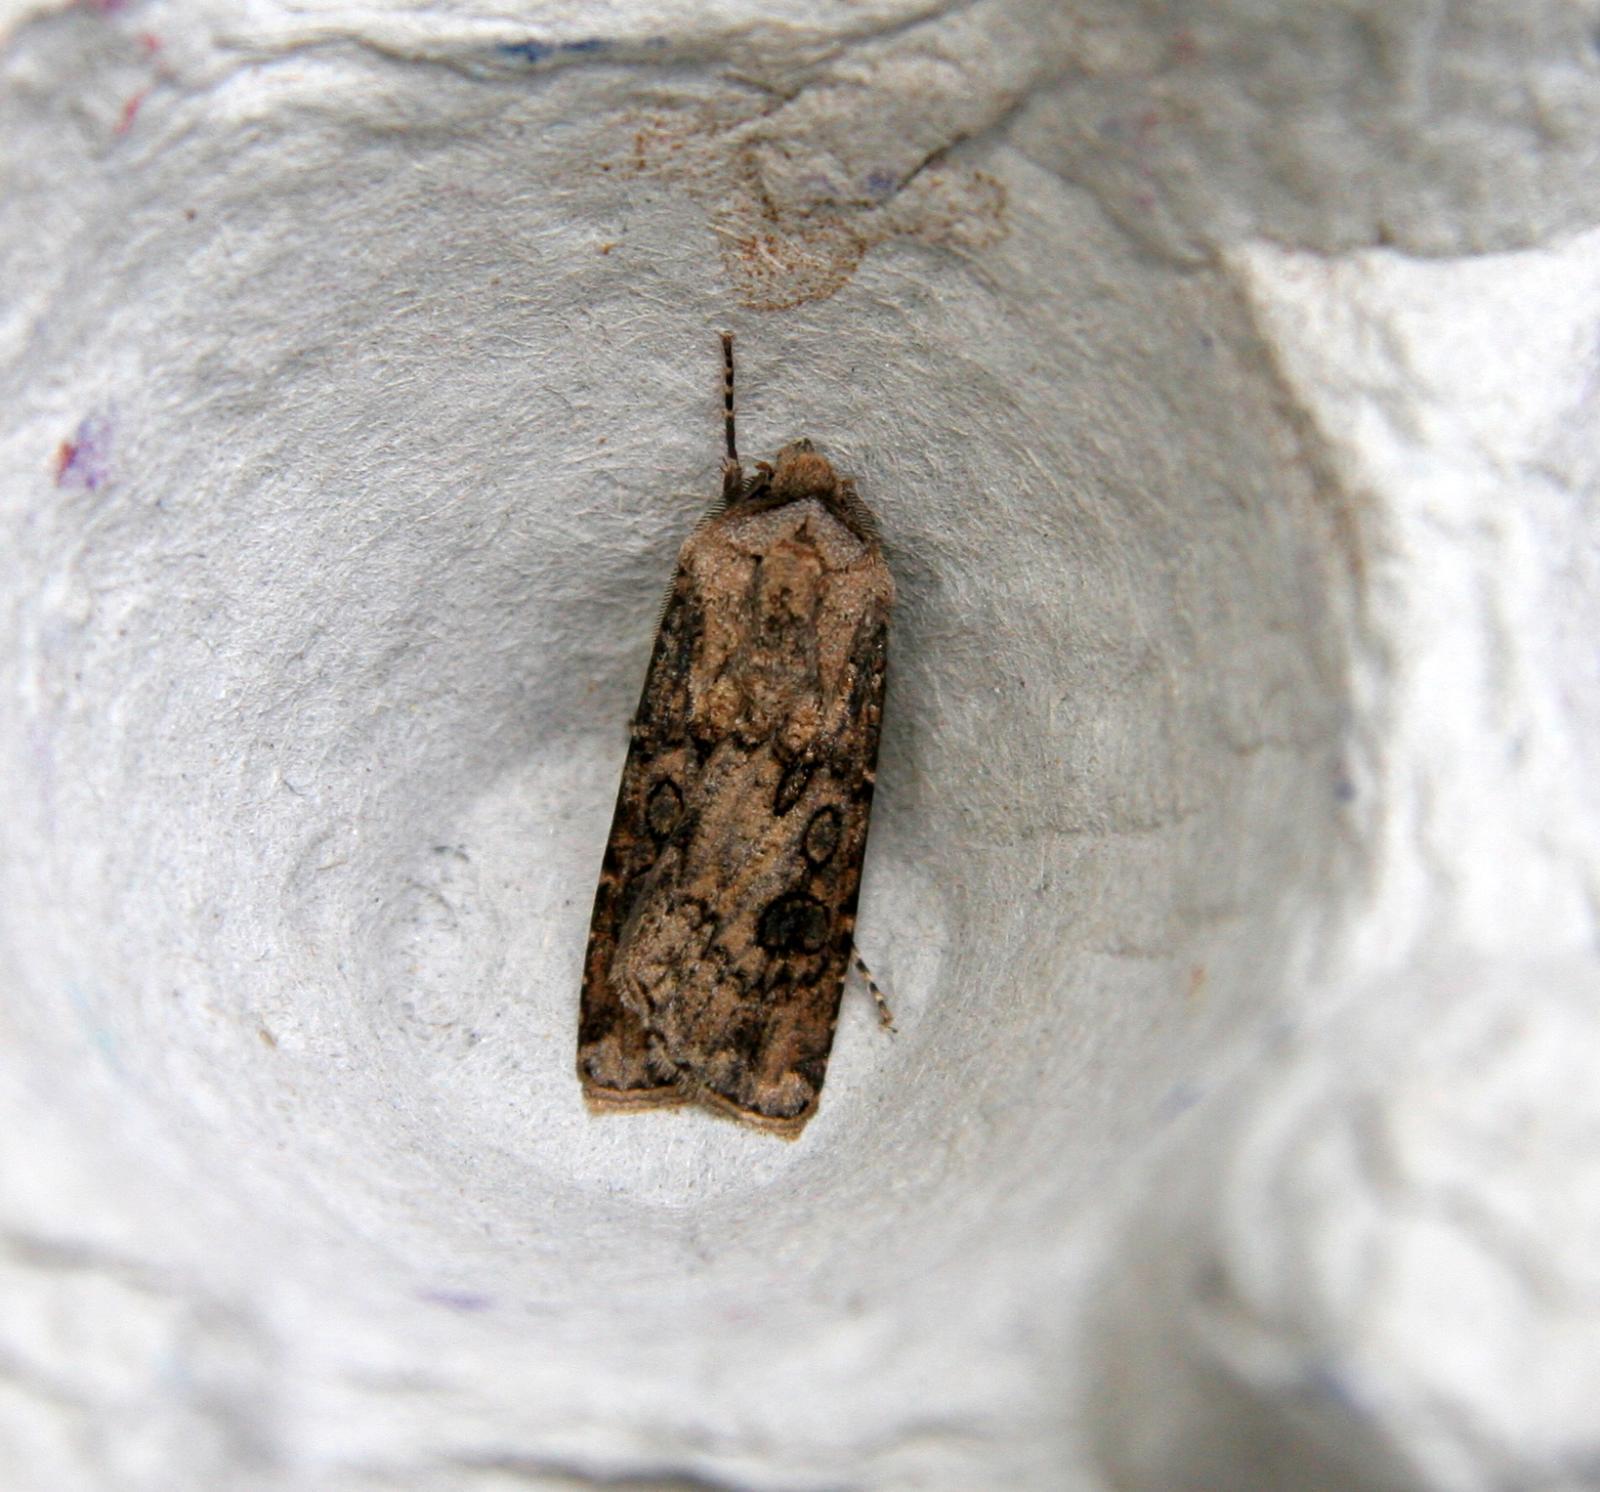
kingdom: Animalia
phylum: Arthropoda
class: Insecta
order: Lepidoptera
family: Noctuidae
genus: Agrotis
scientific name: Agrotis segetum
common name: Turnip moth
